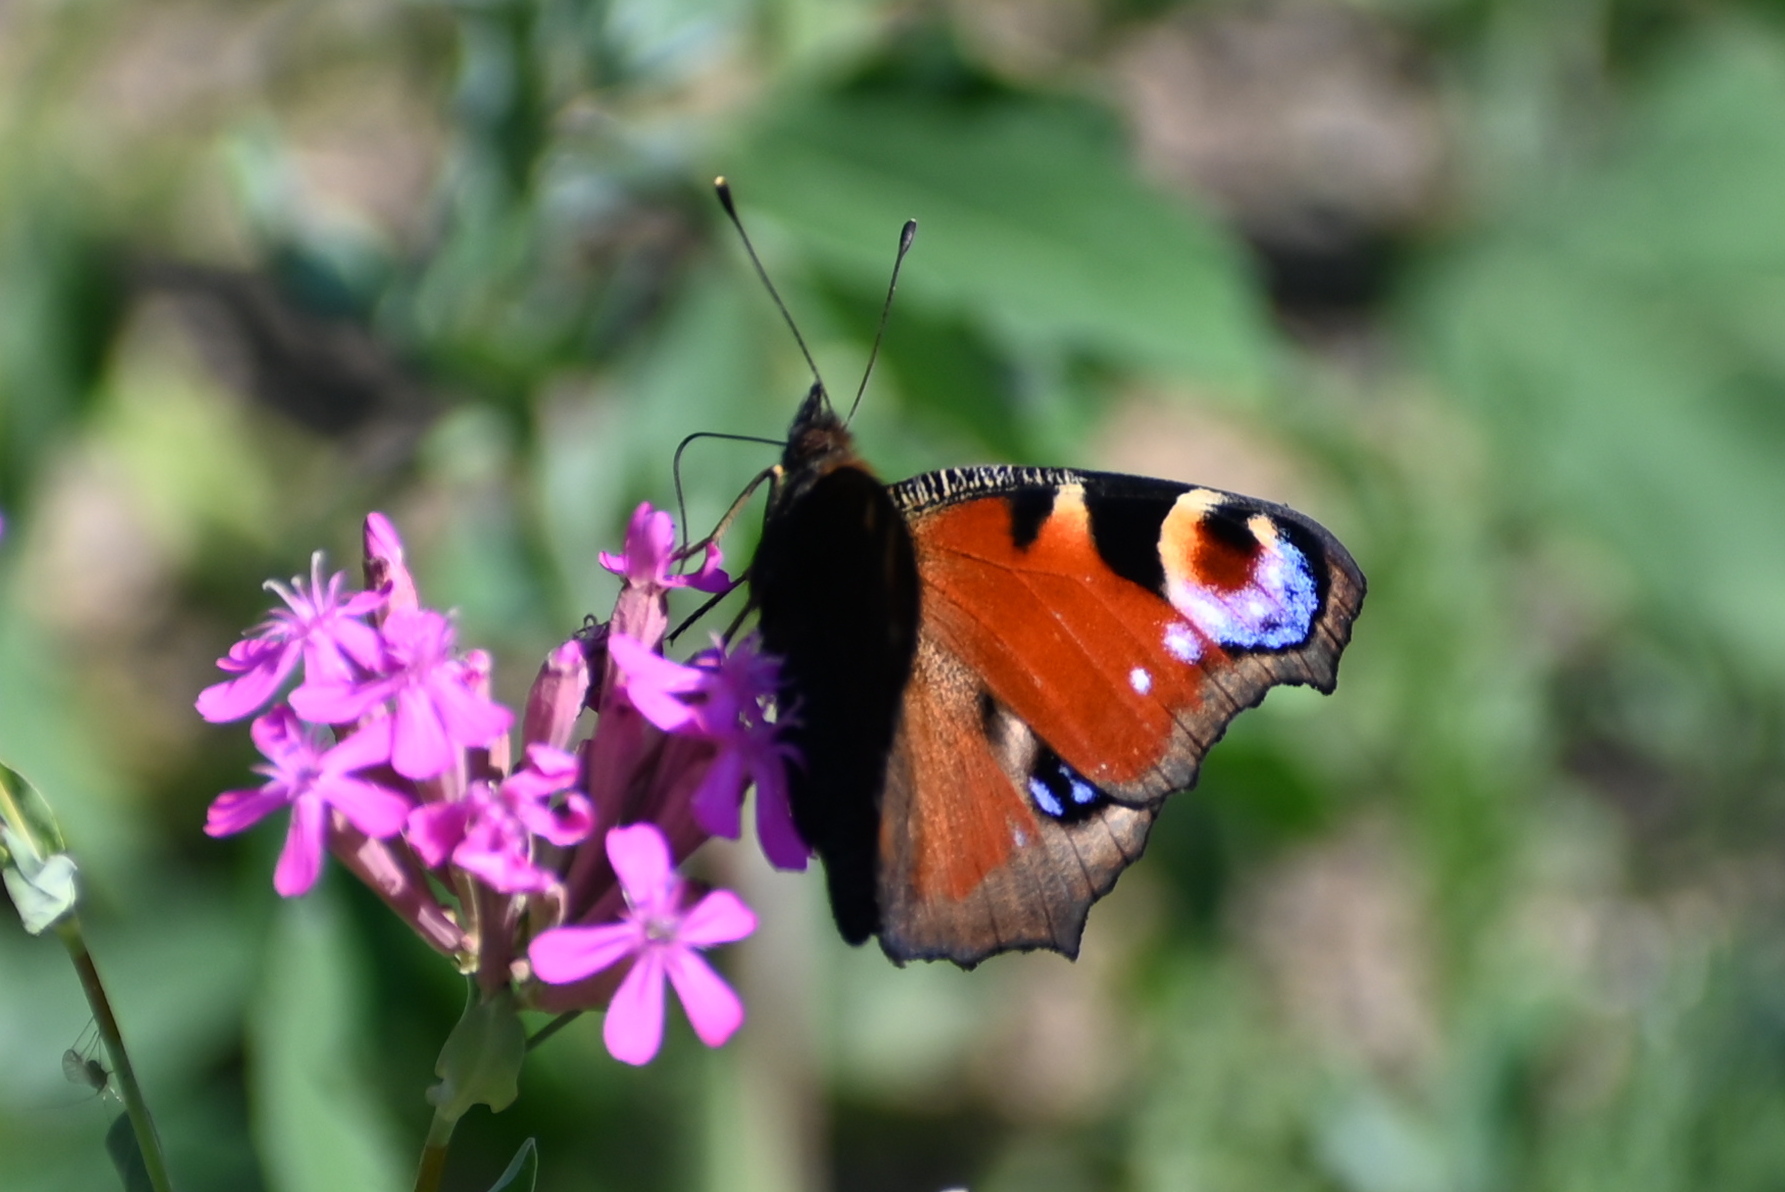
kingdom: Animalia
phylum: Arthropoda
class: Insecta
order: Lepidoptera
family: Nymphalidae
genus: Aglais
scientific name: Aglais io
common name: Peacock
